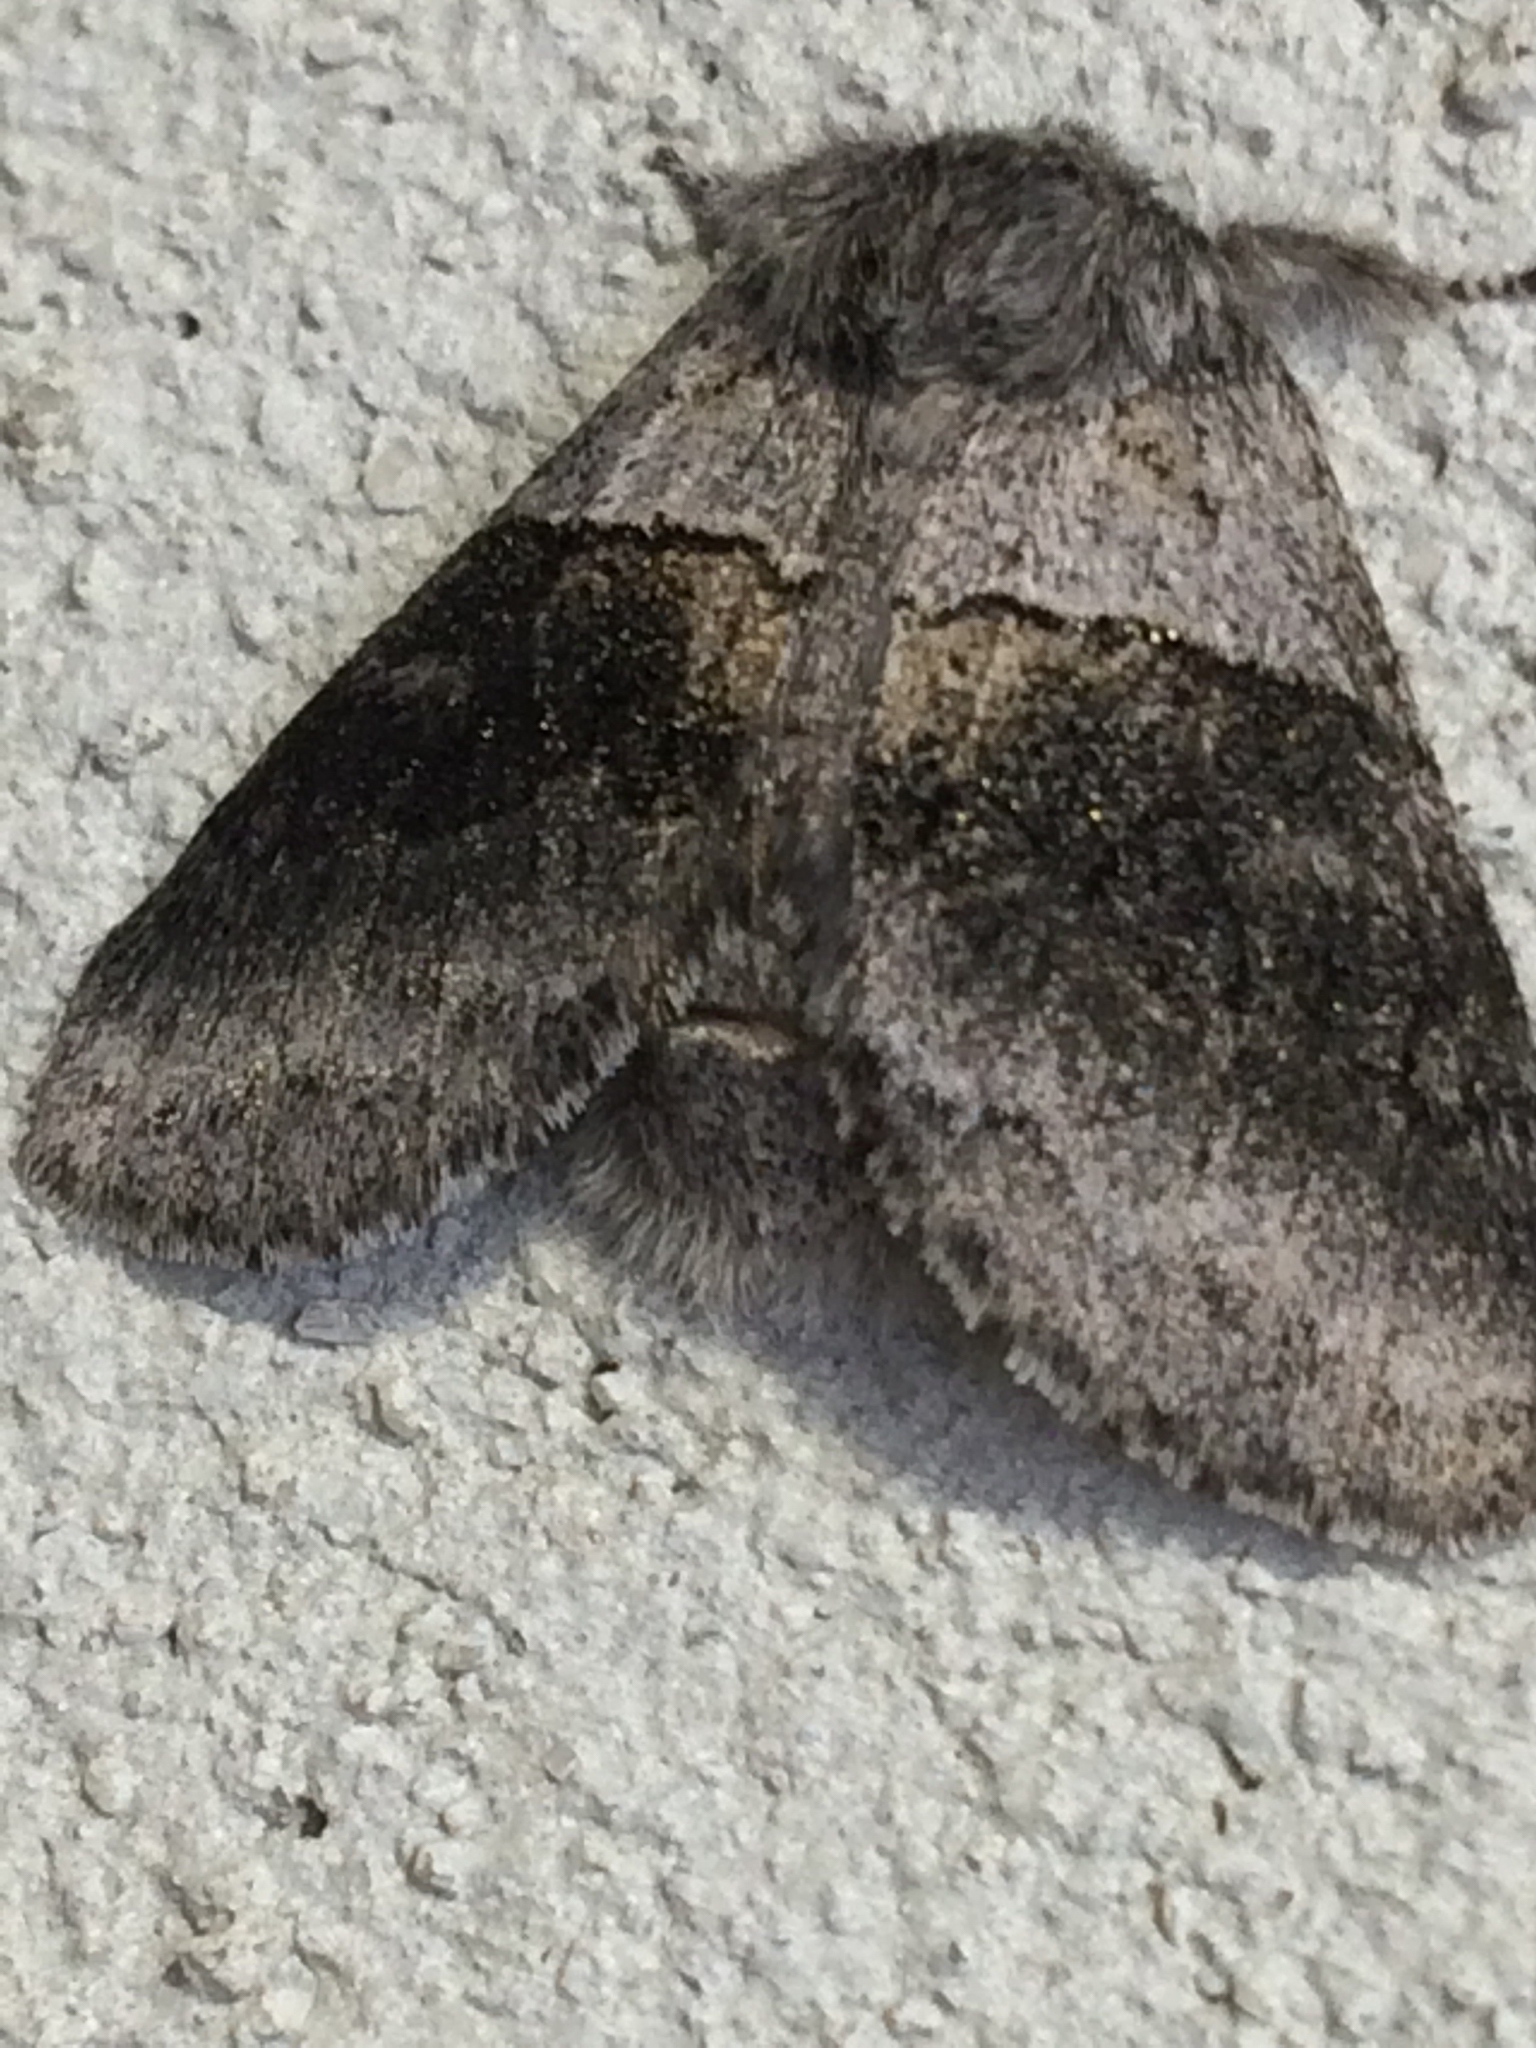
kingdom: Animalia
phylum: Arthropoda
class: Insecta
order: Lepidoptera
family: Notodontidae
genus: Gluphisia
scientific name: Gluphisia septentrionis
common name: Common gluphisia
